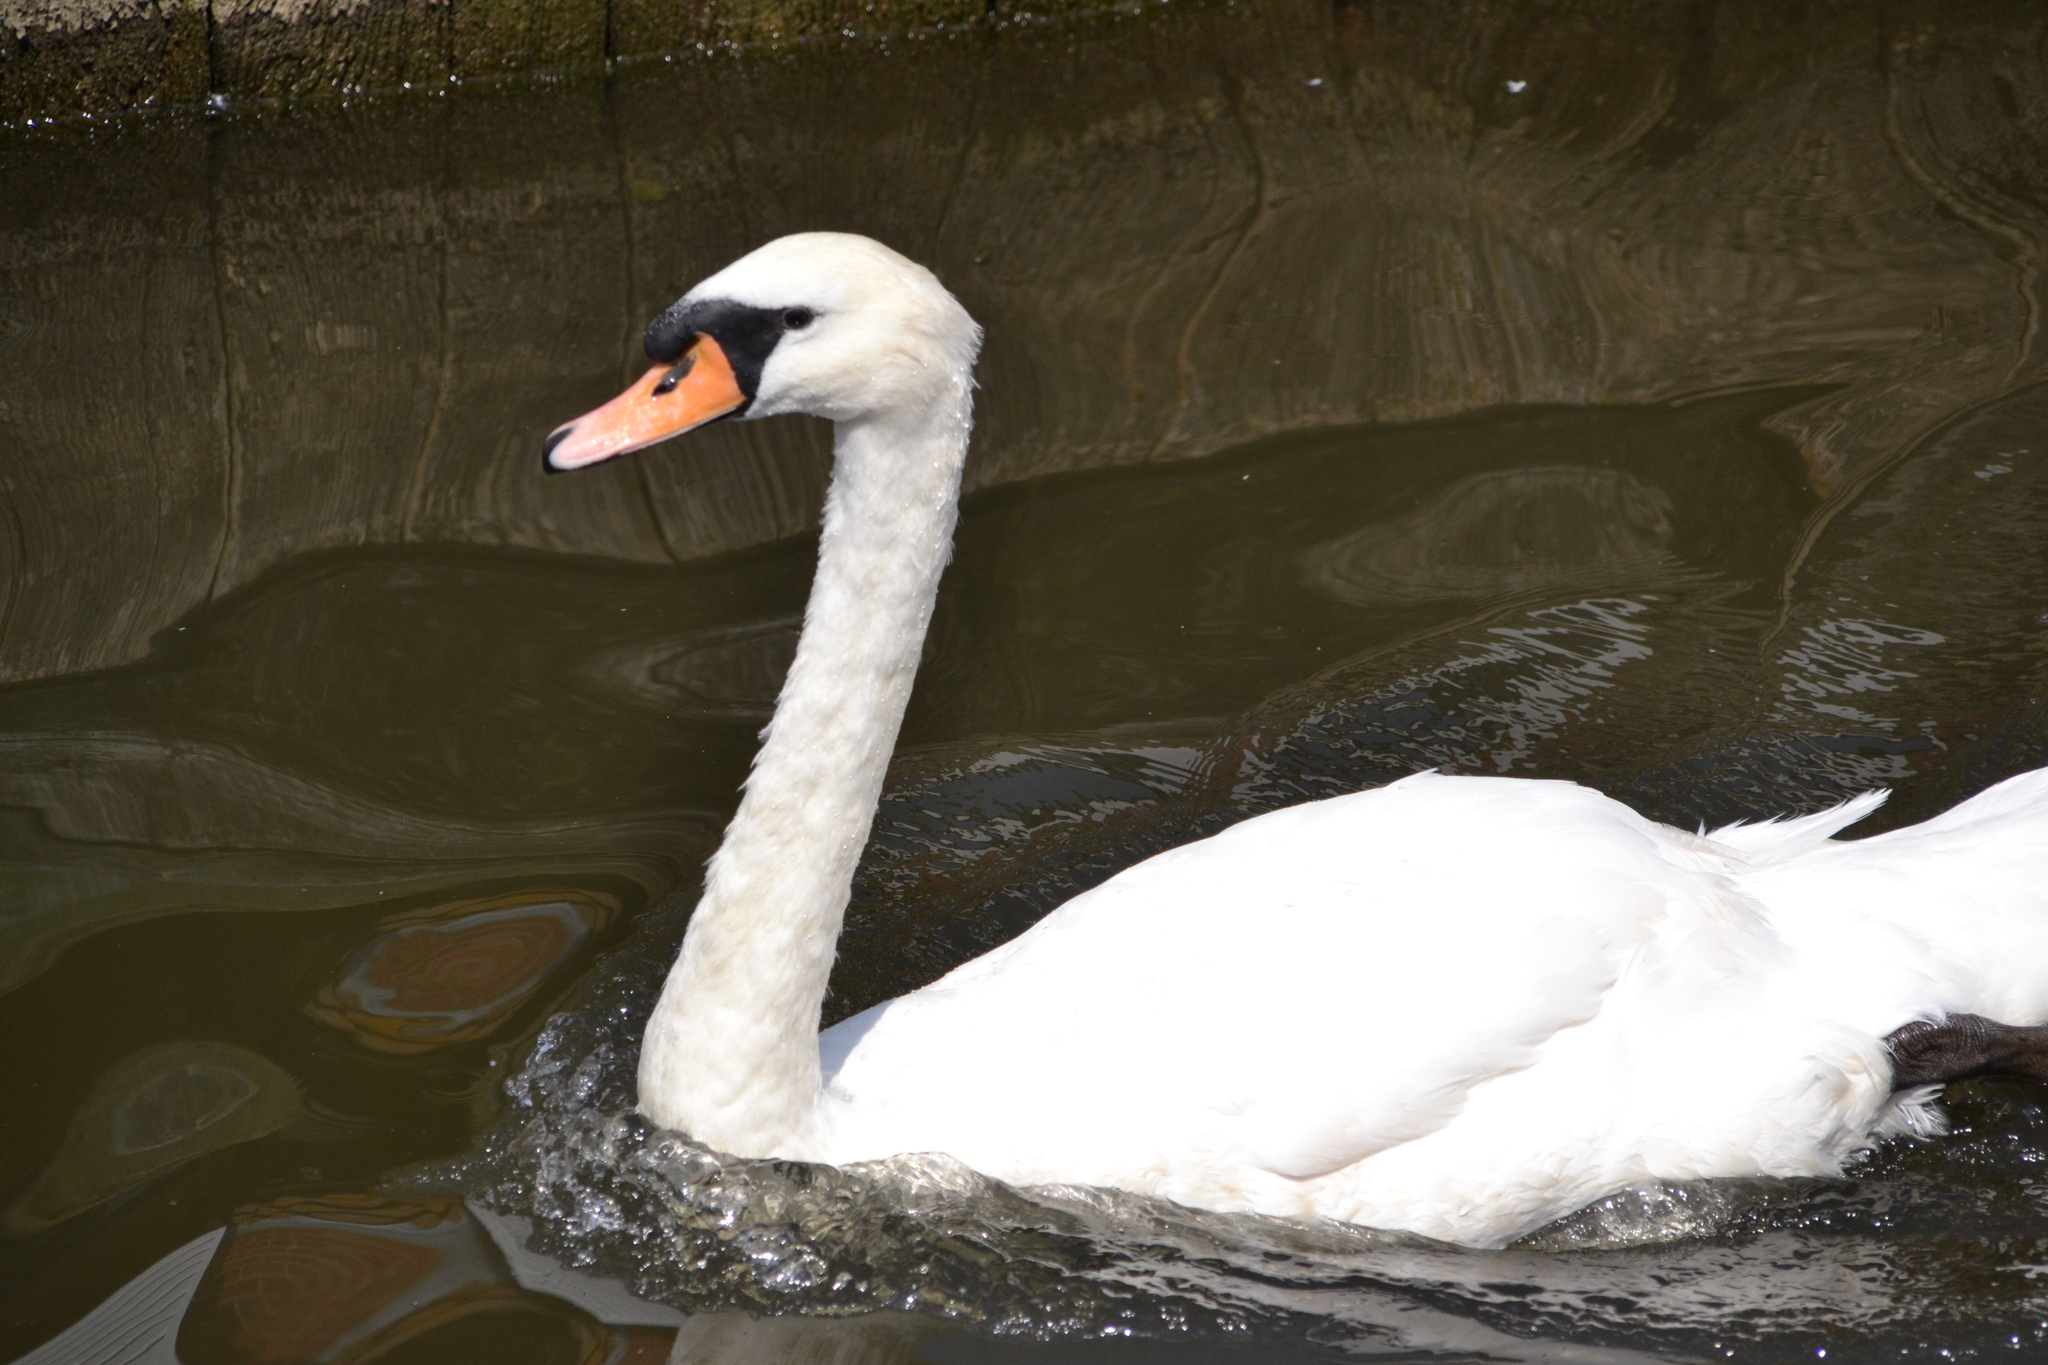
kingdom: Animalia
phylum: Chordata
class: Aves
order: Anseriformes
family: Anatidae
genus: Cygnus
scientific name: Cygnus olor
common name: Mute swan
